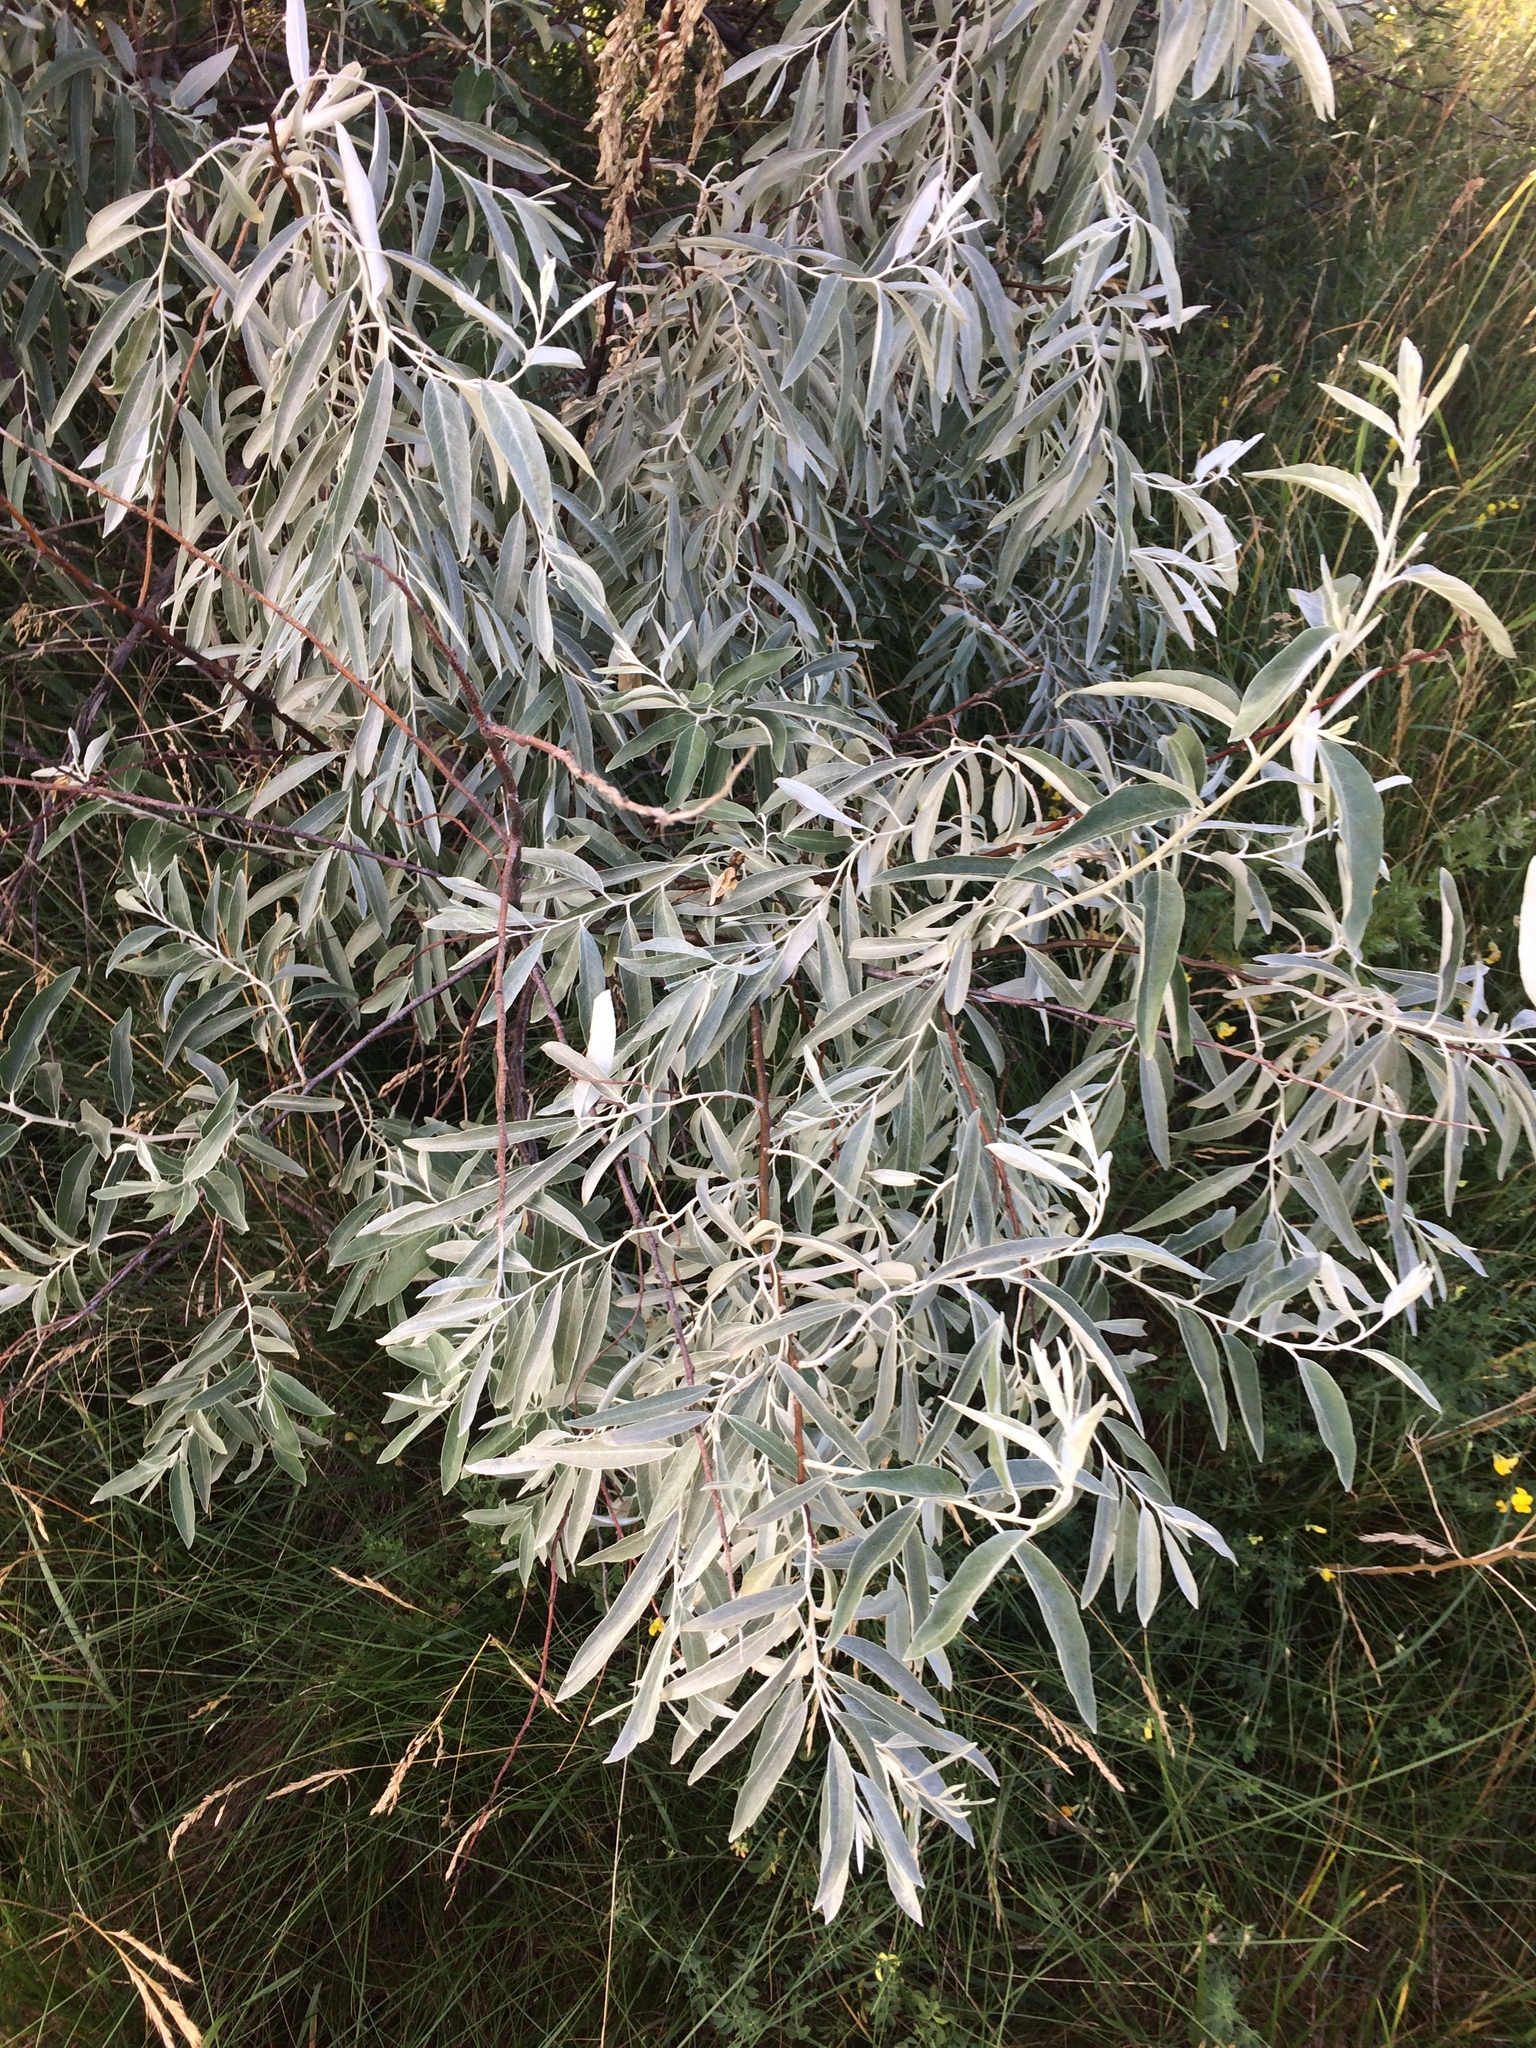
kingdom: Plantae
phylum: Tracheophyta
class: Magnoliopsida
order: Rosales
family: Elaeagnaceae
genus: Elaeagnus
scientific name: Elaeagnus angustifolia
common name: Russian olive
